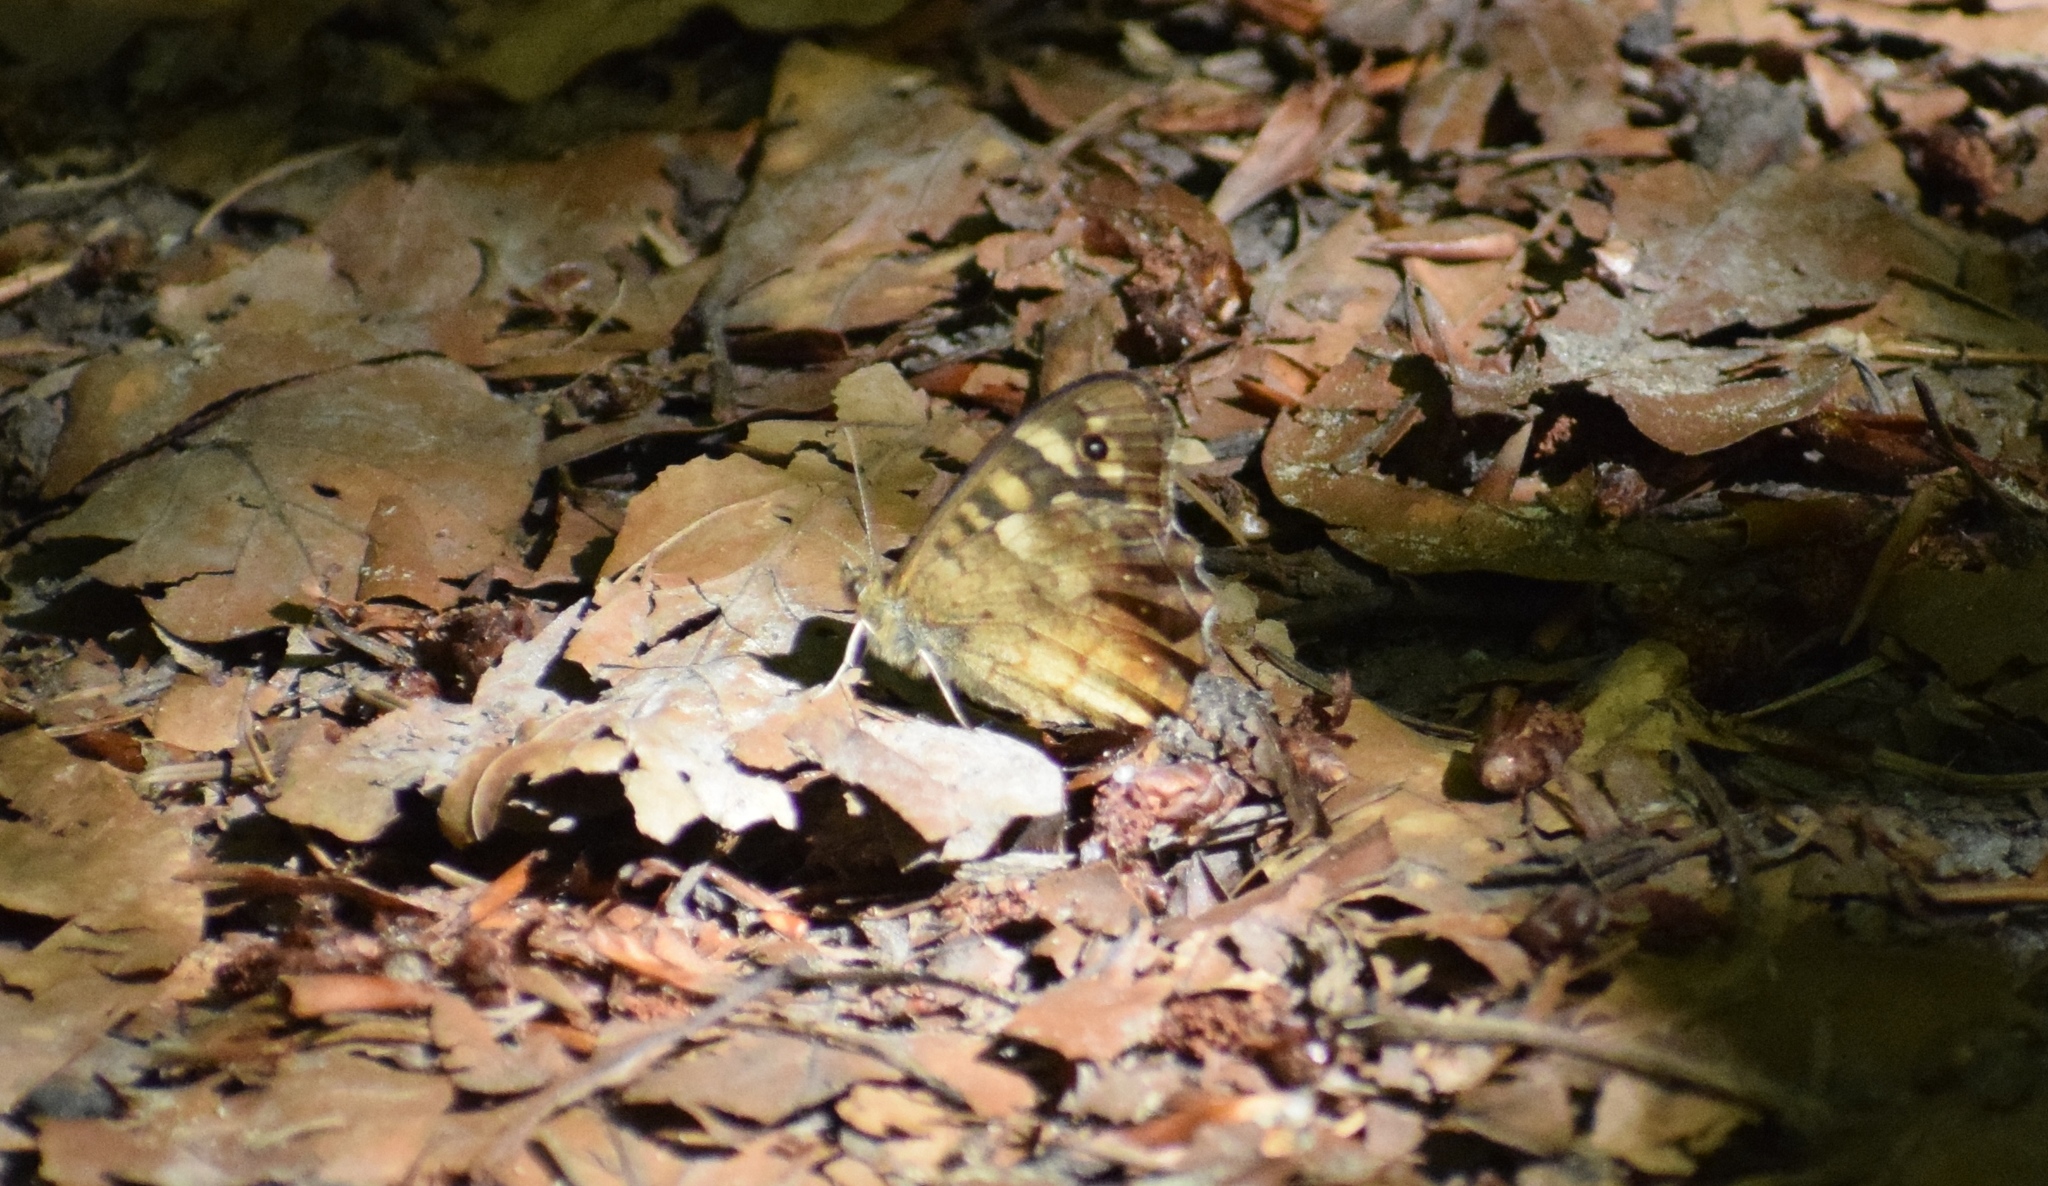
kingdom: Animalia
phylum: Arthropoda
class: Insecta
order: Lepidoptera
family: Nymphalidae
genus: Pararge
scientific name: Pararge aegeria
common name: Speckled wood
